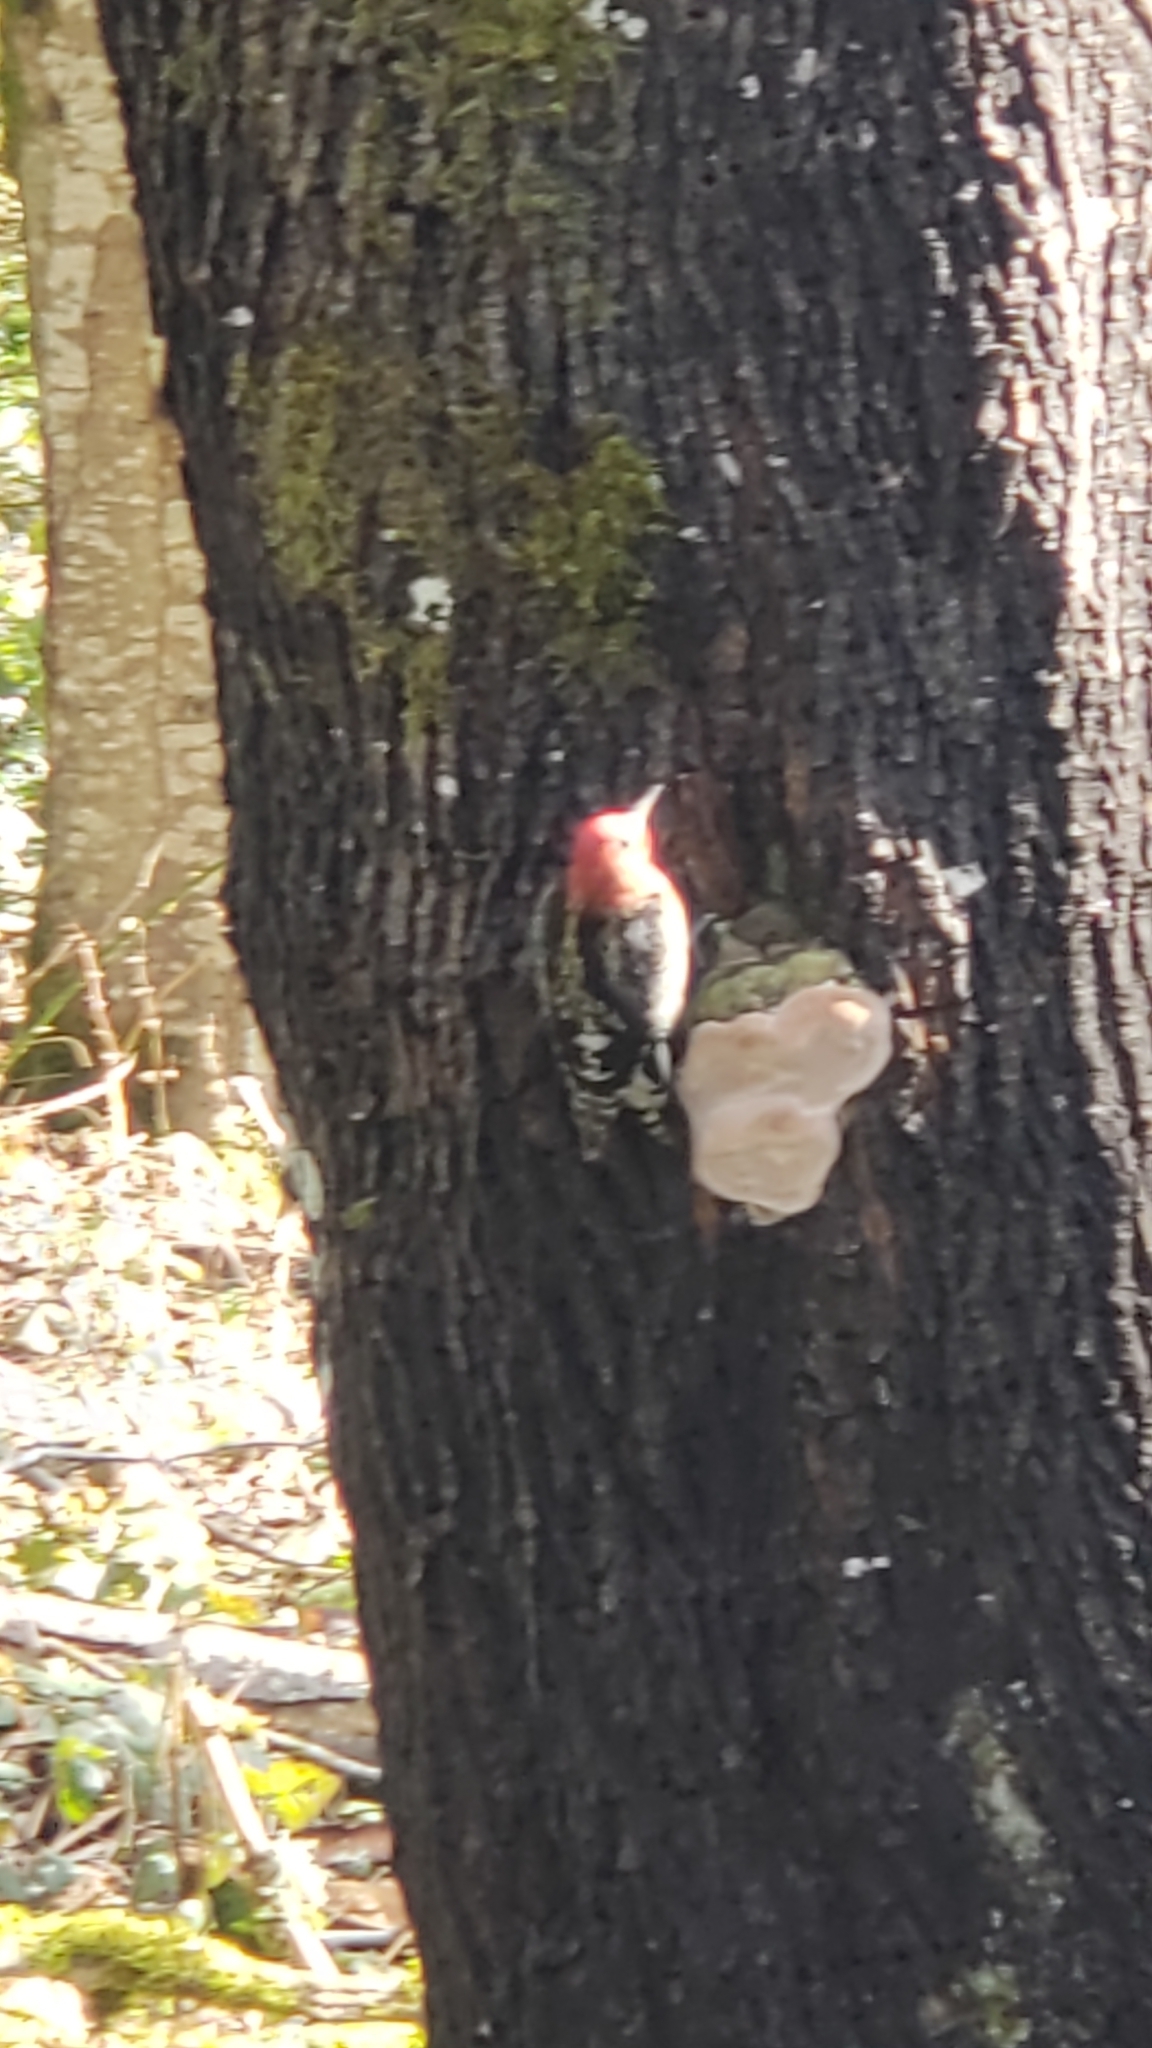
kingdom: Animalia
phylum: Chordata
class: Aves
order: Piciformes
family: Picidae
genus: Sphyrapicus
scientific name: Sphyrapicus ruber
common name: Red-breasted sapsucker
